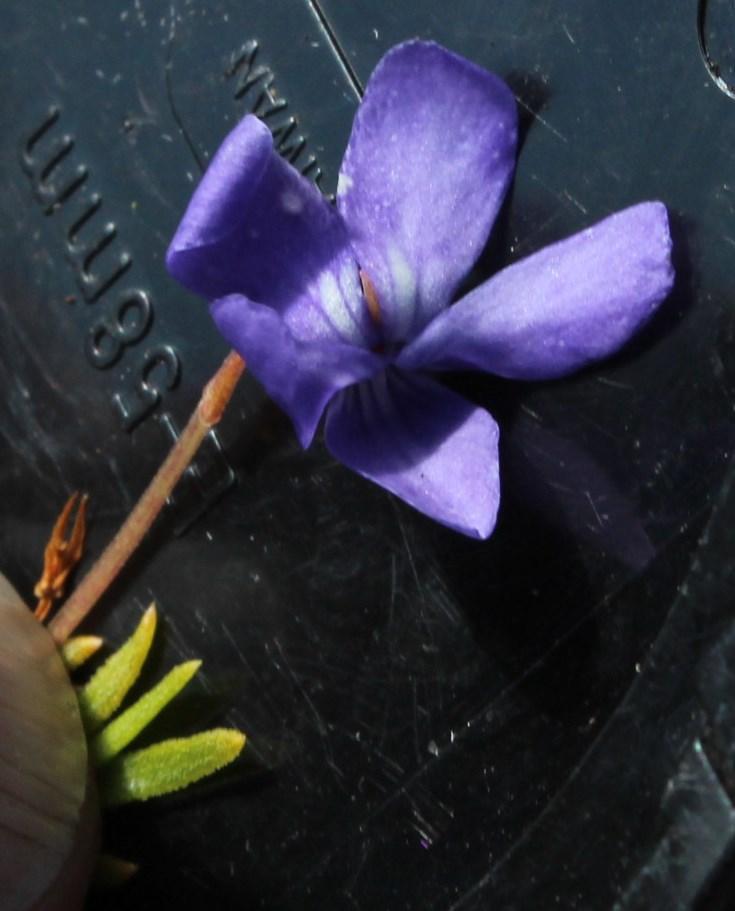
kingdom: Plantae
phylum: Tracheophyta
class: Magnoliopsida
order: Malpighiales
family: Violaceae
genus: Viola
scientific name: Viola decumbens
